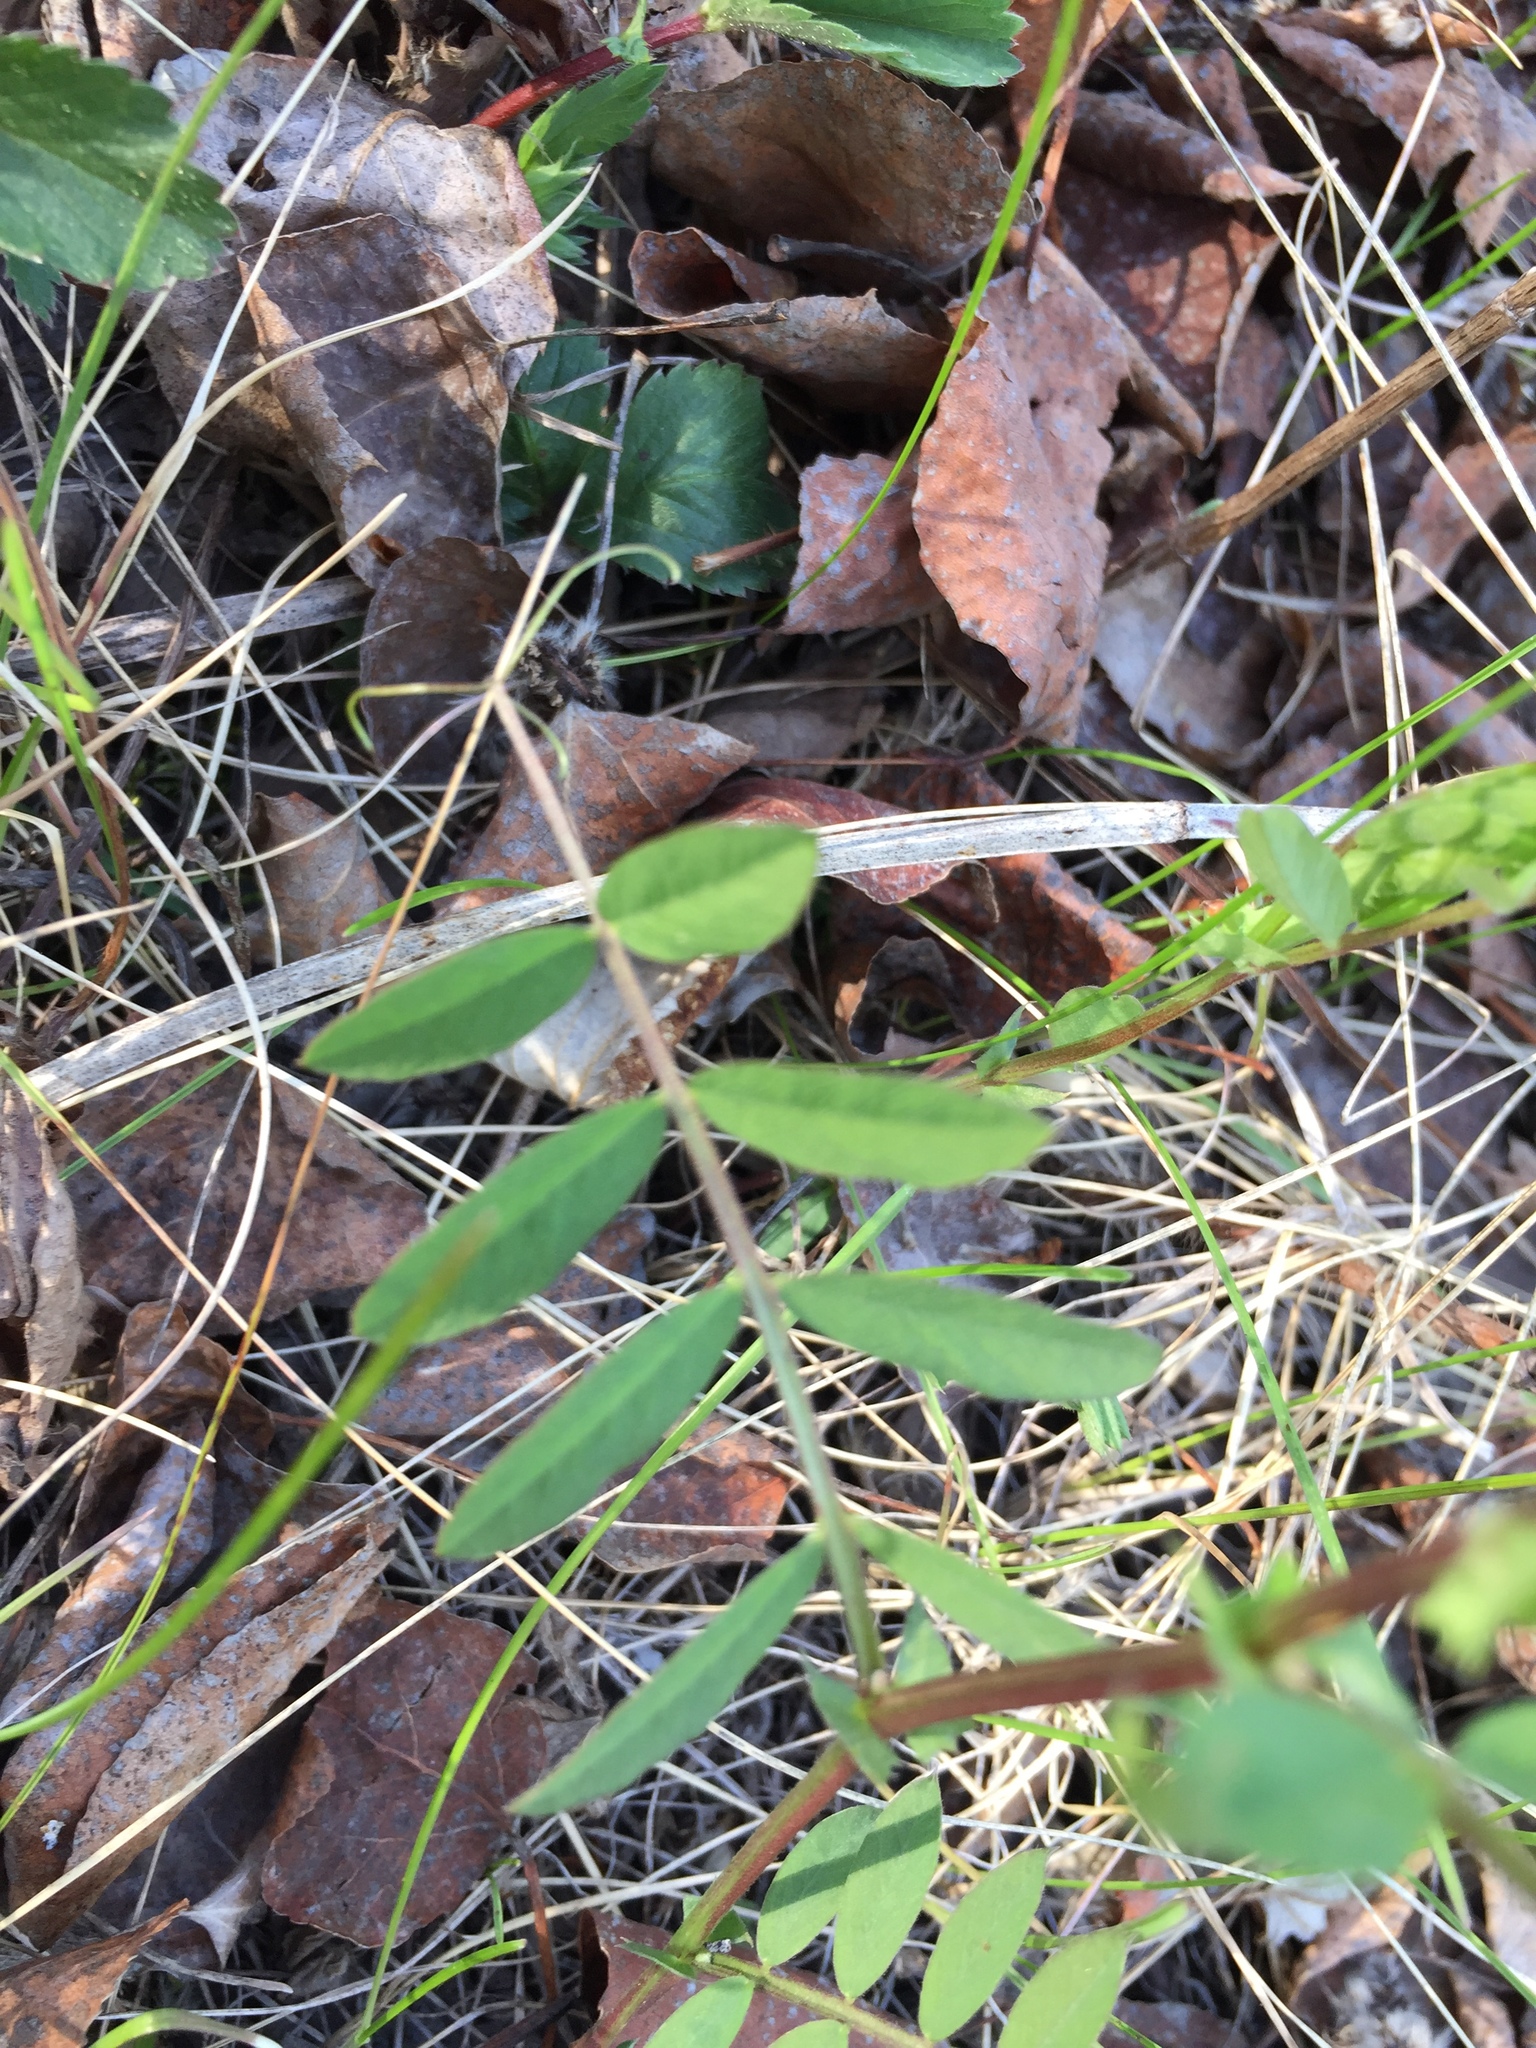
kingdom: Plantae
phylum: Tracheophyta
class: Magnoliopsida
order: Fabales
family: Fabaceae
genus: Vicia
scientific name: Vicia americana
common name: American vetch
